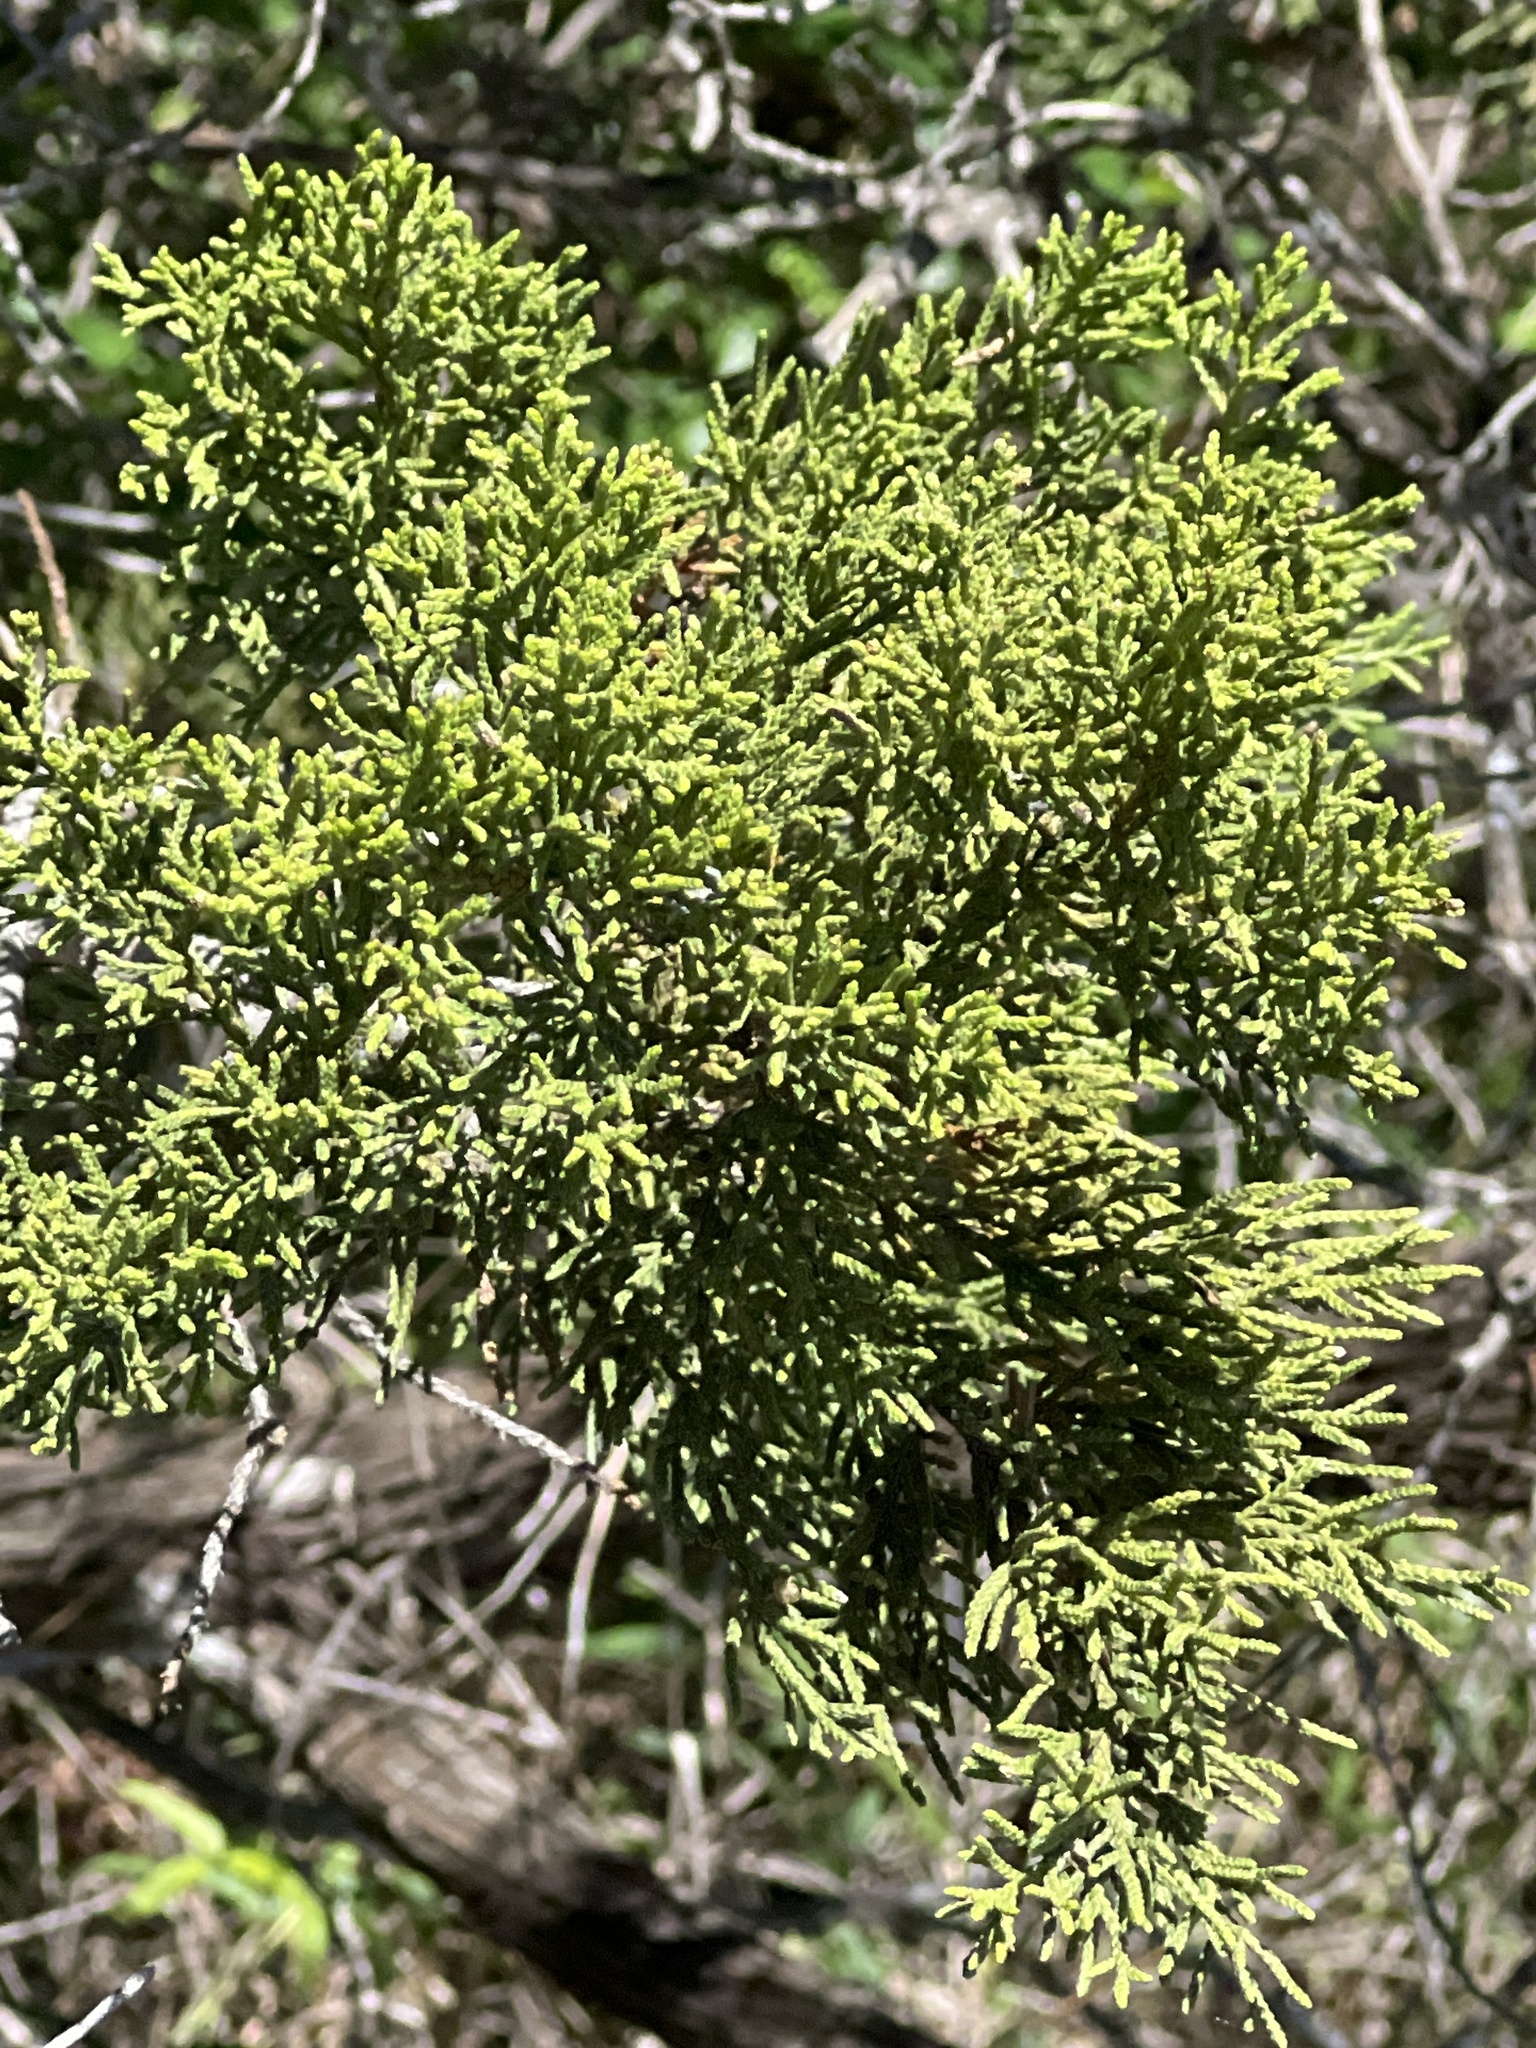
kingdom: Plantae
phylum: Tracheophyta
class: Pinopsida
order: Pinales
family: Cupressaceae
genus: Juniperus
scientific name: Juniperus ashei
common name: Mexican juniper
